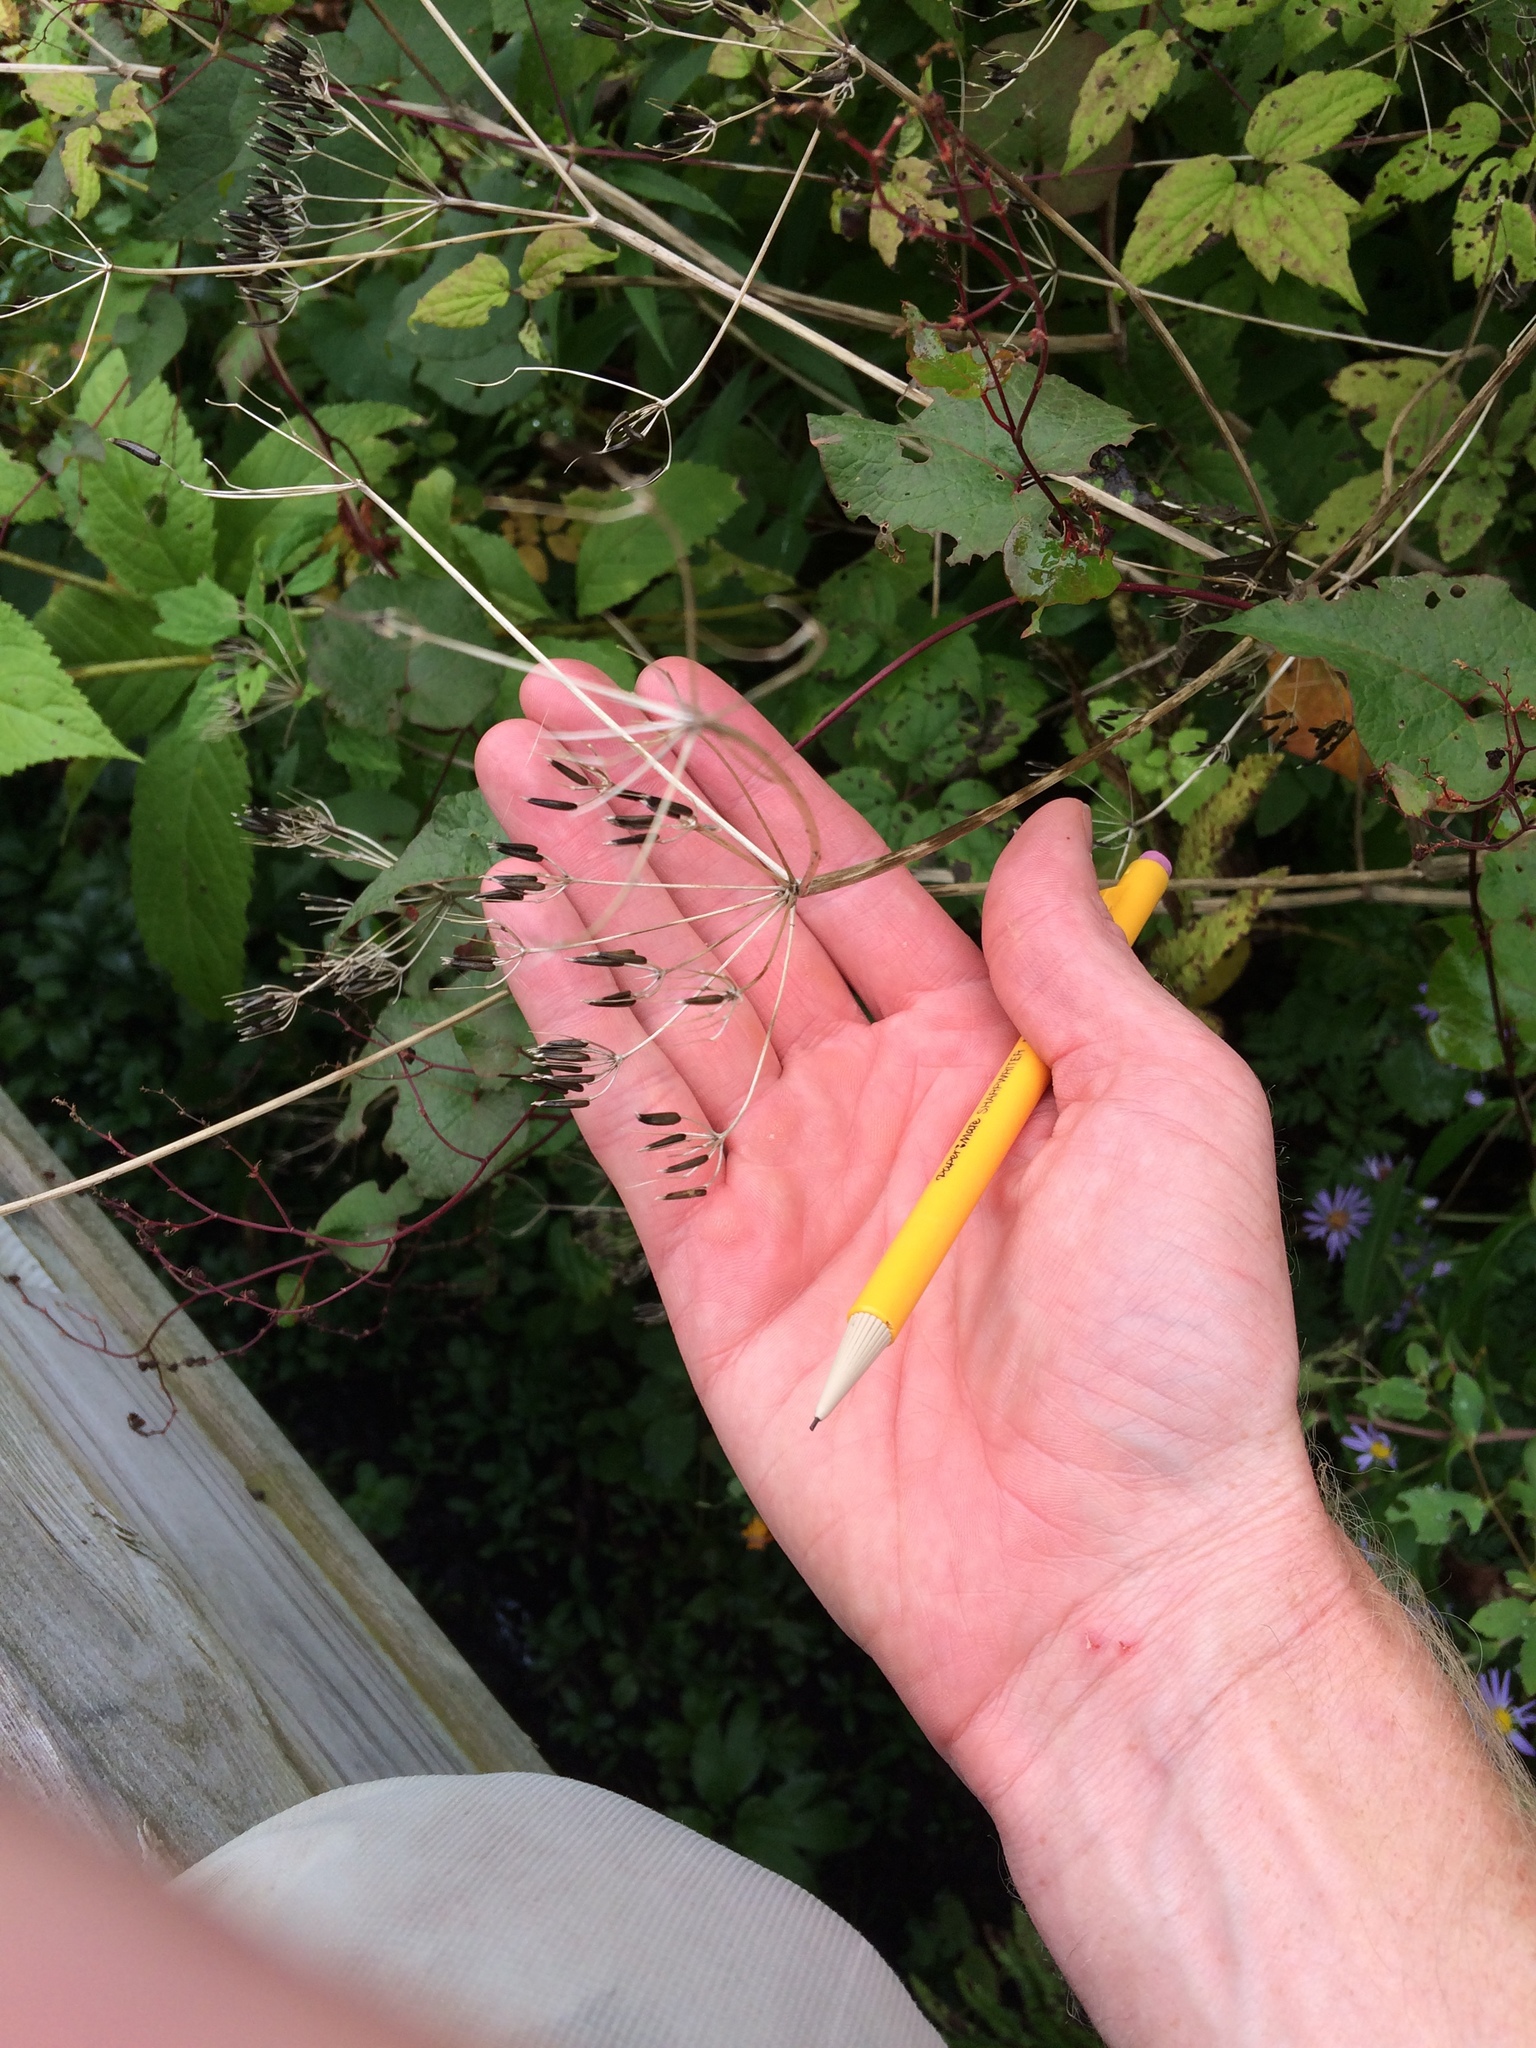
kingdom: Plantae
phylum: Tracheophyta
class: Magnoliopsida
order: Apiales
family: Apiaceae
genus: Anthriscus
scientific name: Anthriscus sylvestris
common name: Cow parsley
